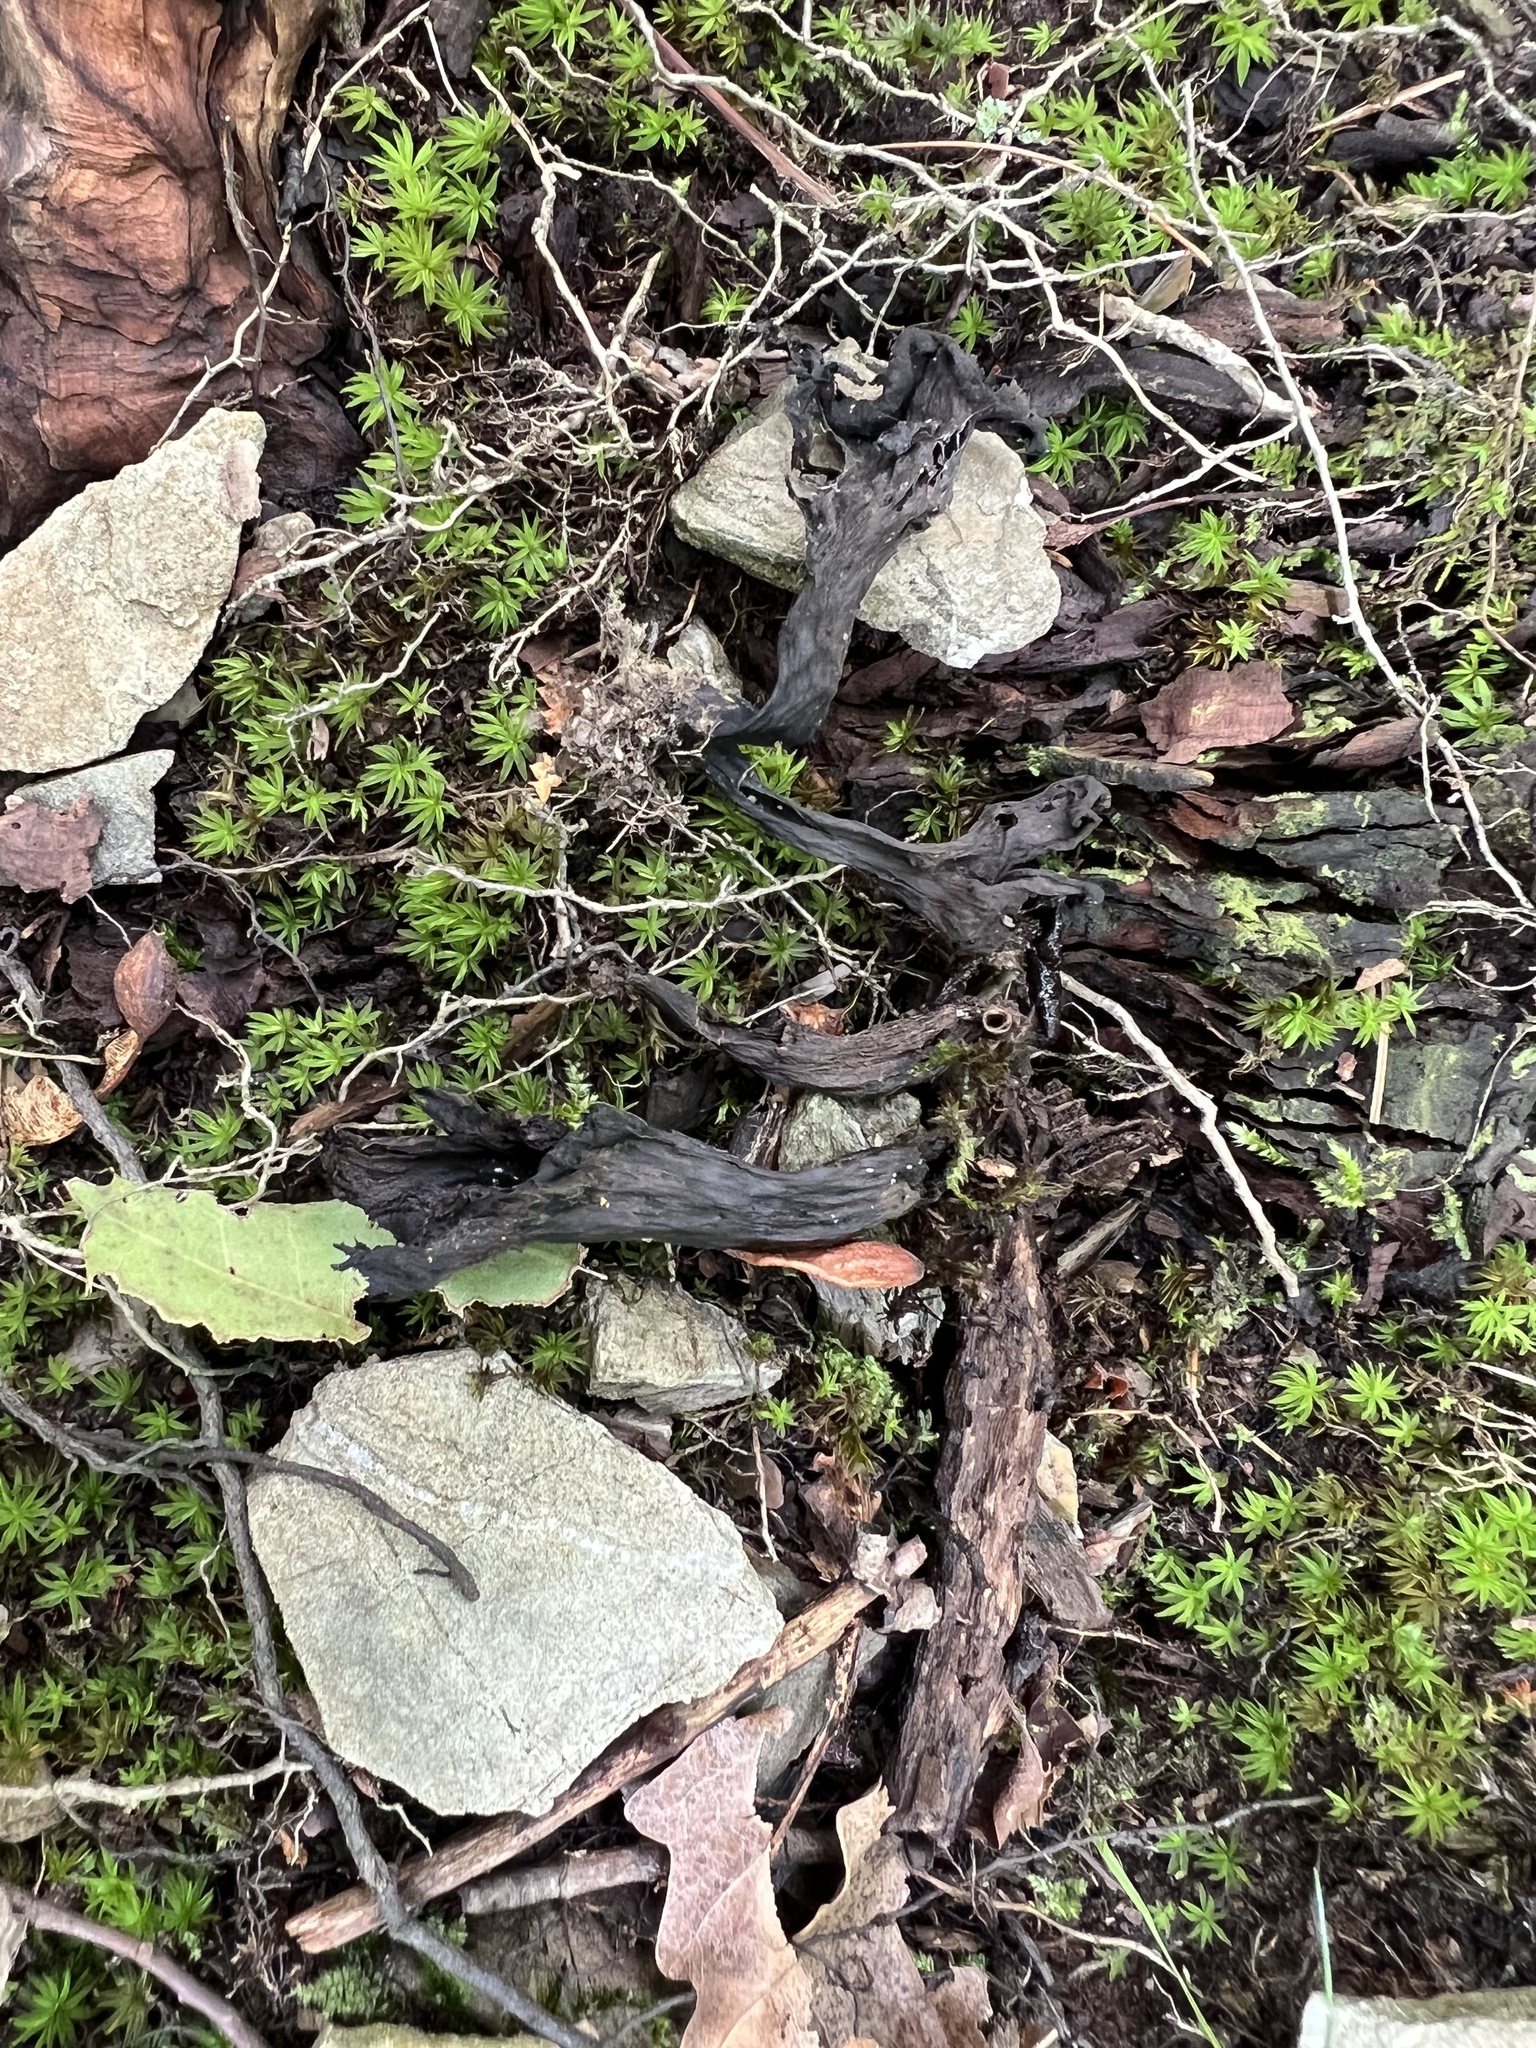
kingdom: Fungi
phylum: Basidiomycota
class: Agaricomycetes
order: Cantharellales
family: Hydnaceae
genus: Craterellus
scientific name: Craterellus cornucopioides
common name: Horn of plenty
